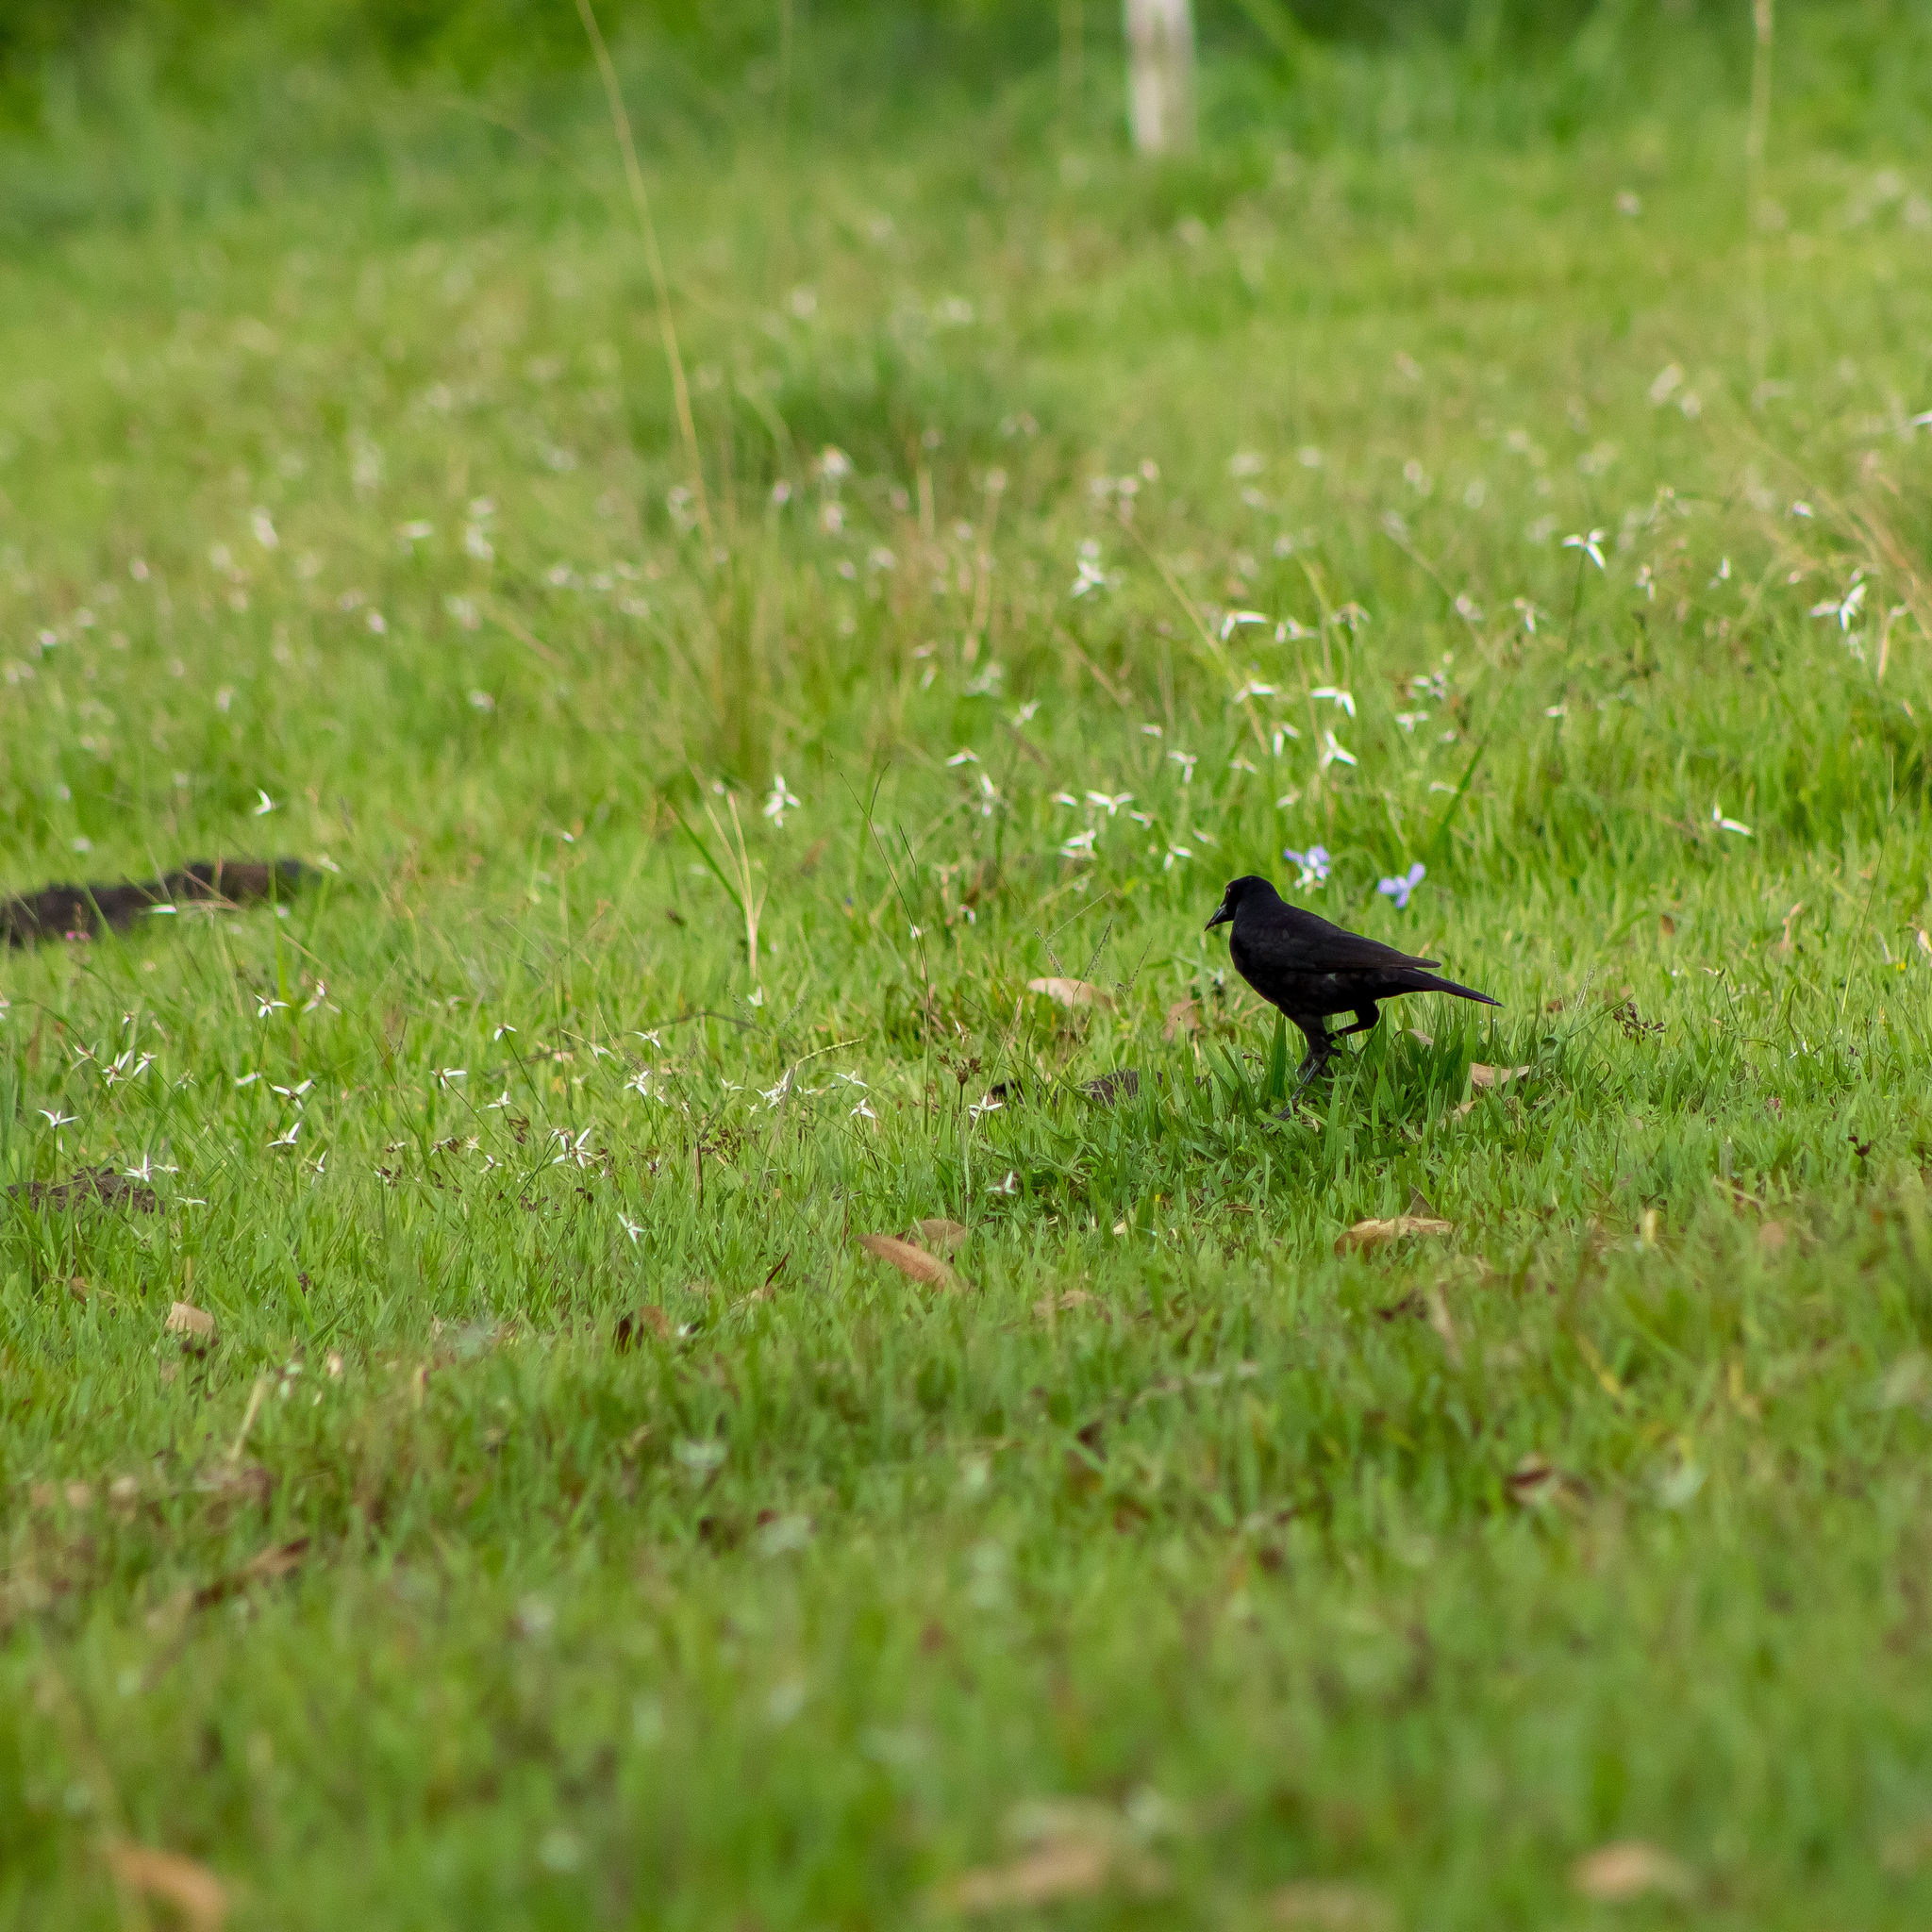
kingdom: Animalia
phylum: Chordata
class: Aves
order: Passeriformes
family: Icteridae
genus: Molothrus
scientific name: Molothrus oryzivorus
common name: Giant cowbird
